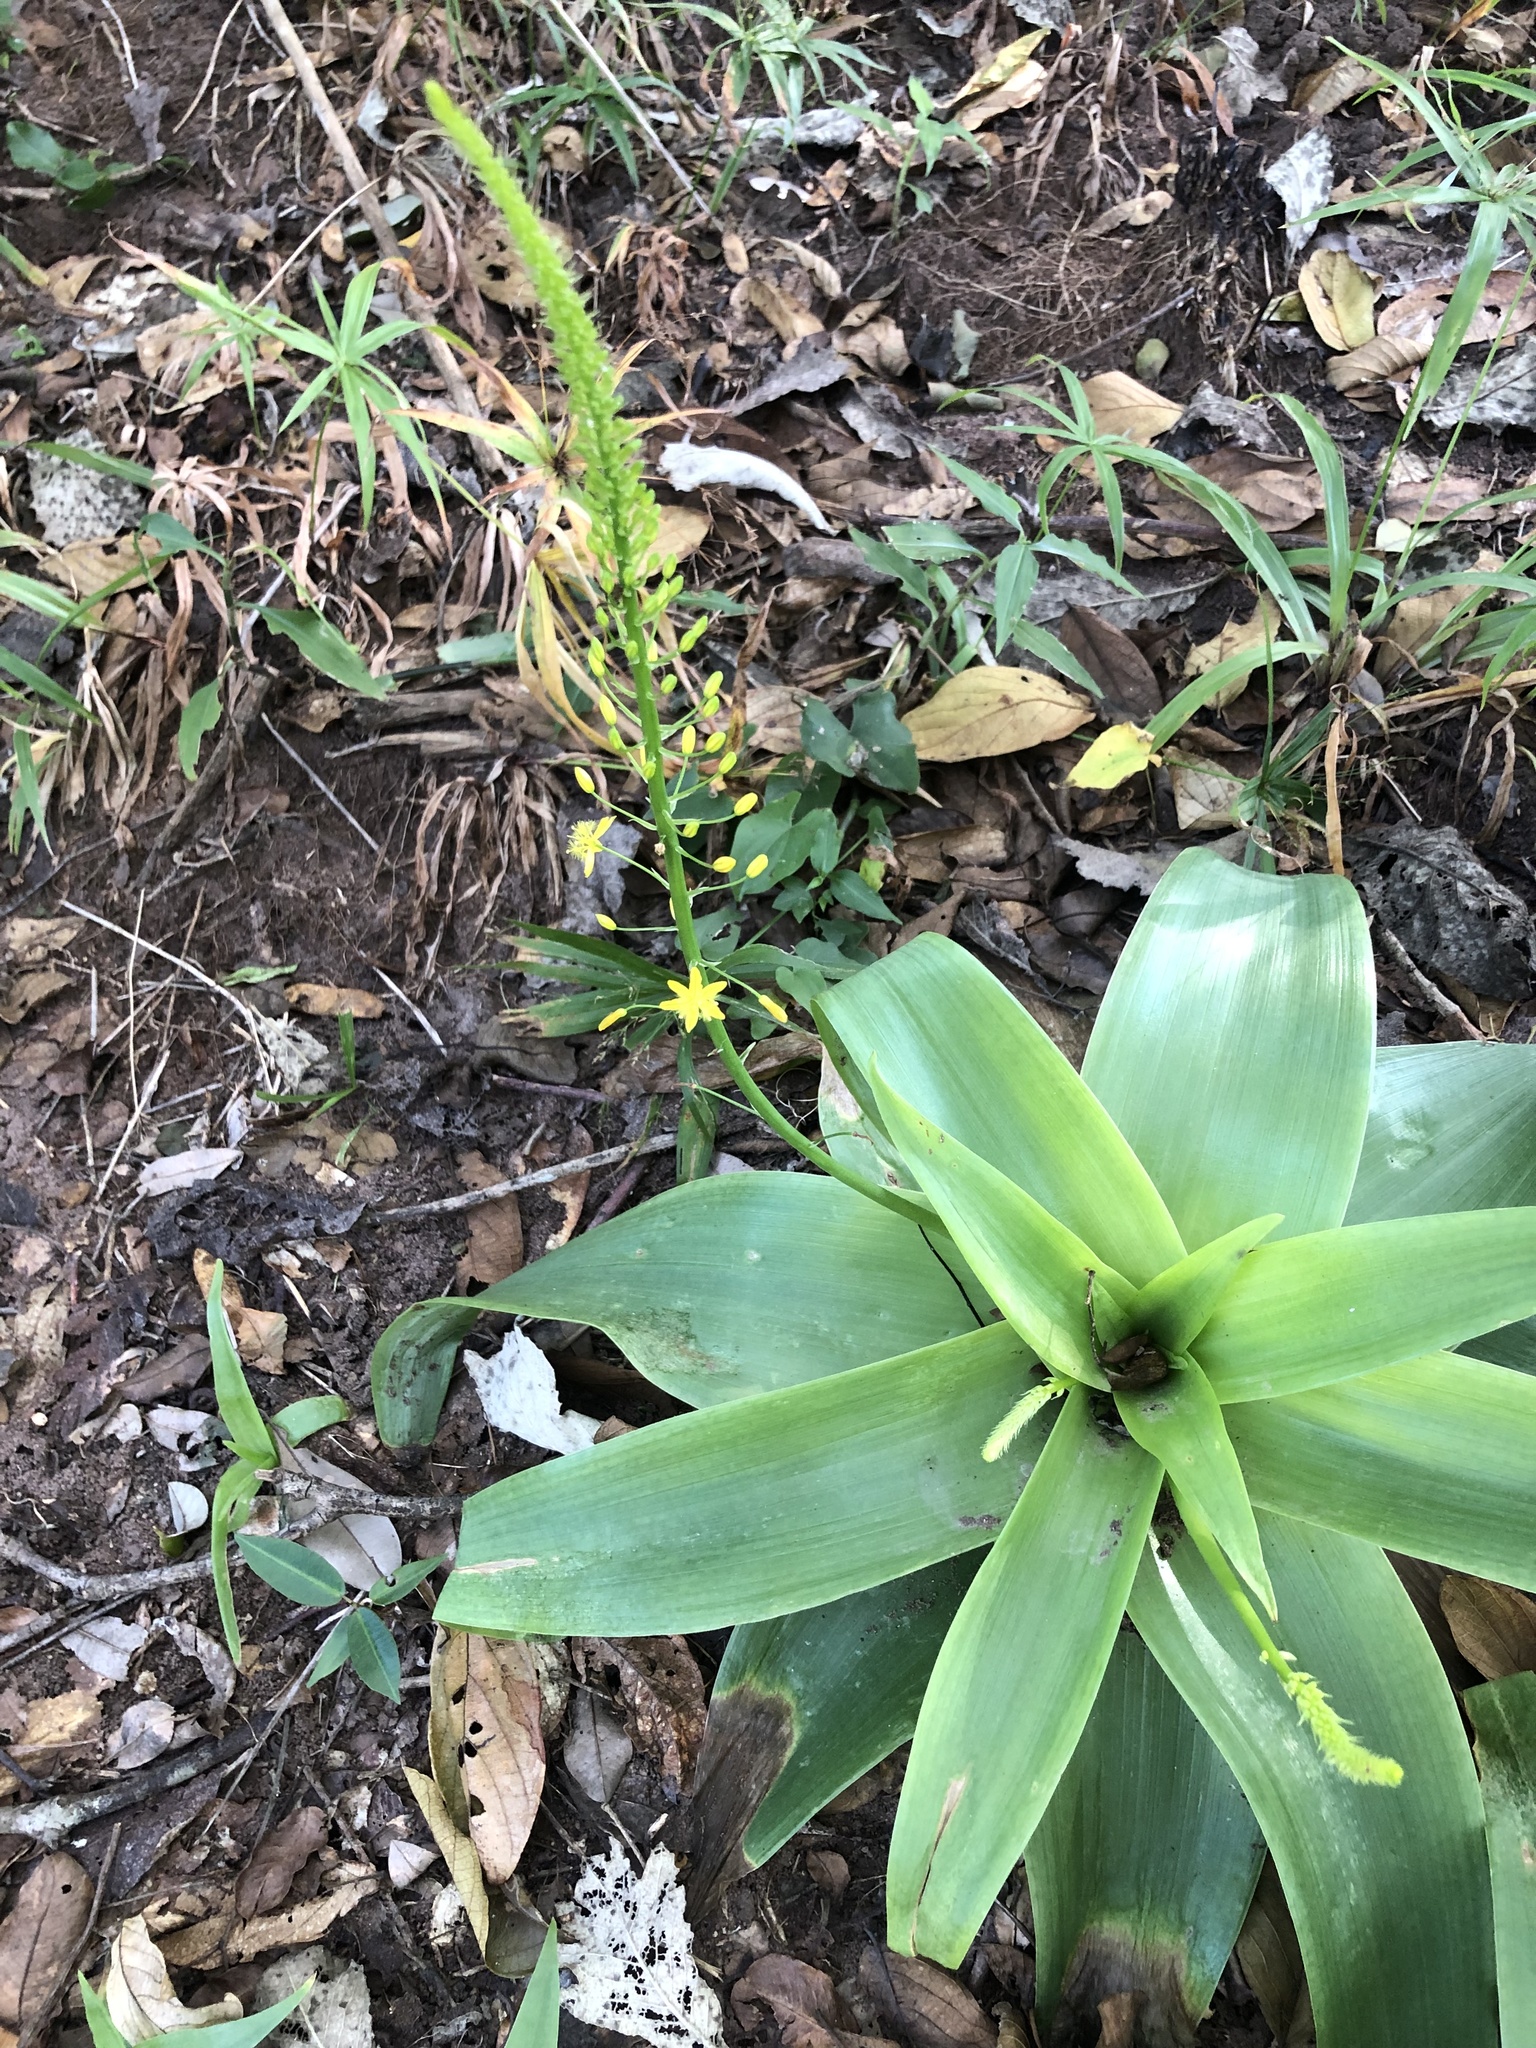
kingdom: Plantae
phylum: Tracheophyta
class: Liliopsida
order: Asparagales
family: Asphodelaceae
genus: Bulbine
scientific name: Bulbine latifolia
